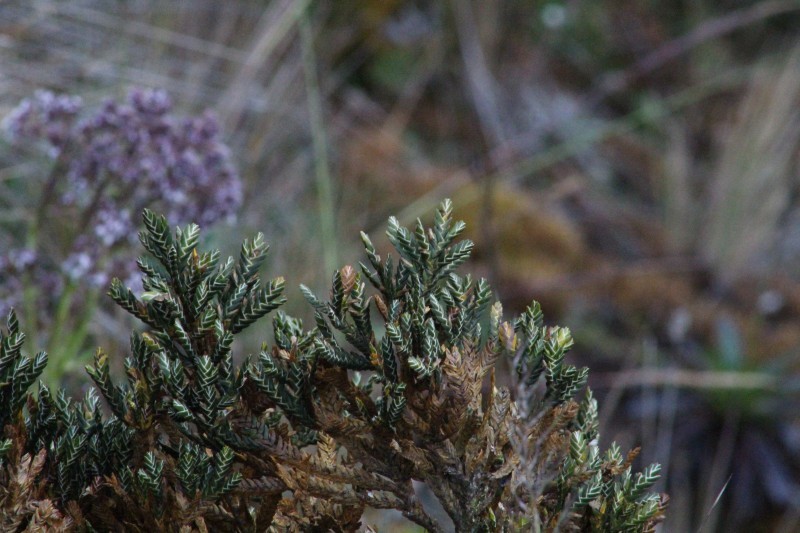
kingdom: Plantae
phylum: Tracheophyta
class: Magnoliopsida
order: Asterales
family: Asteraceae
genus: Andicolea
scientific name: Andicolea thuyoides
